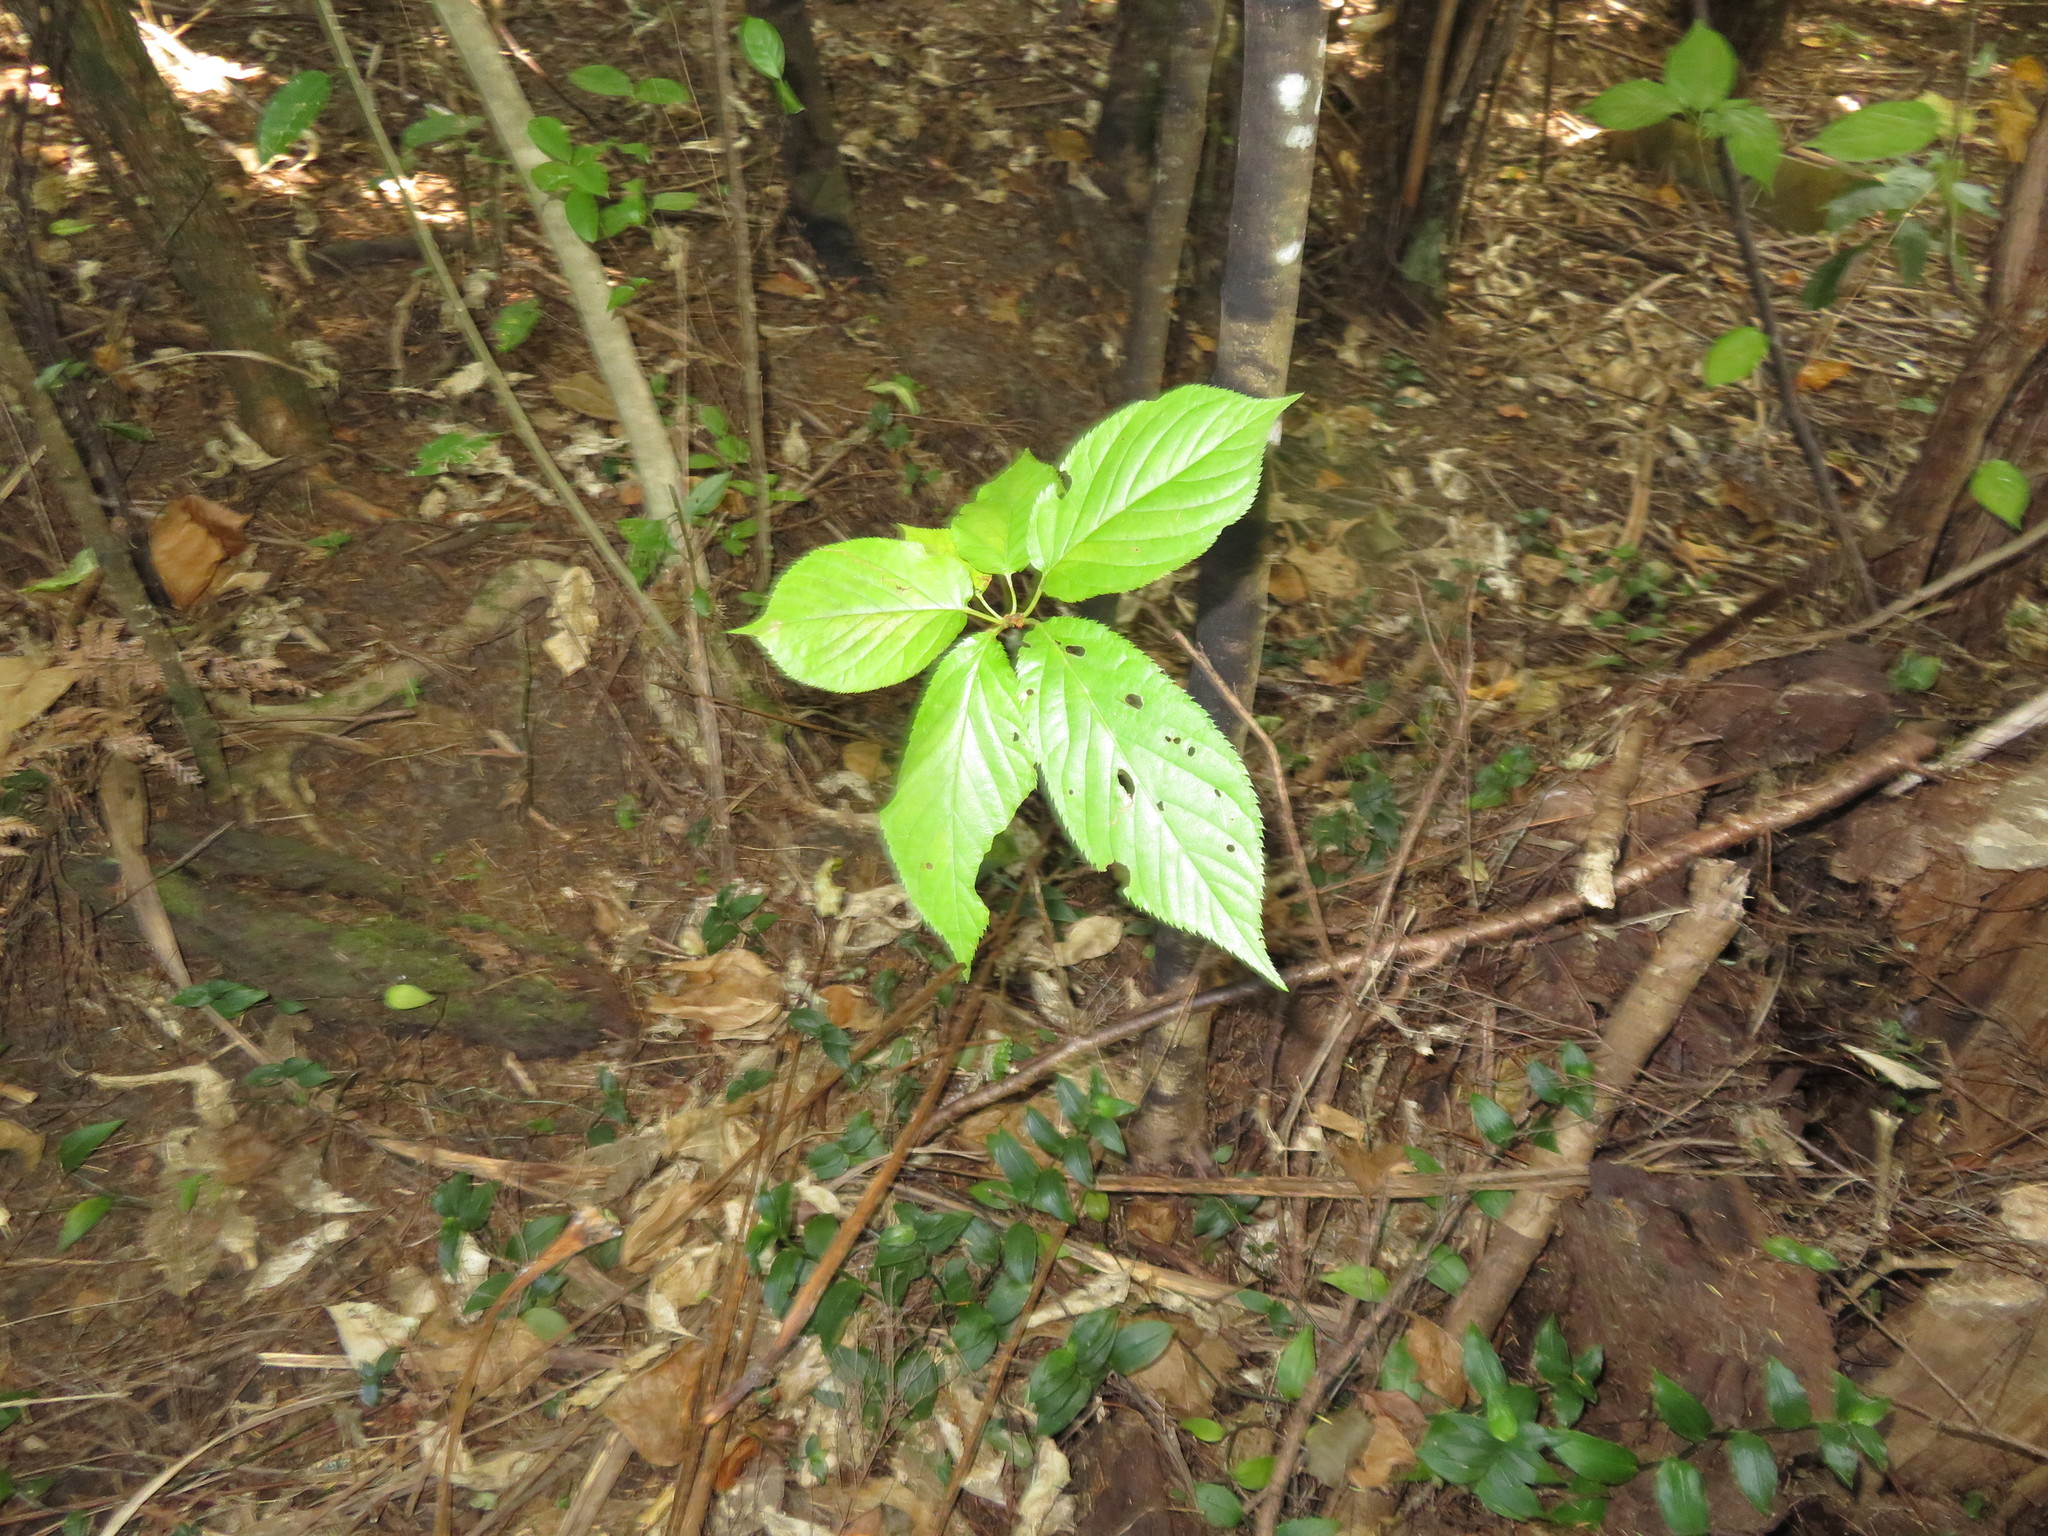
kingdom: Plantae
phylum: Tracheophyta
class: Liliopsida
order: Commelinales
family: Commelinaceae
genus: Tradescantia
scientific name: Tradescantia fluminensis
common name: Wandering-jew
